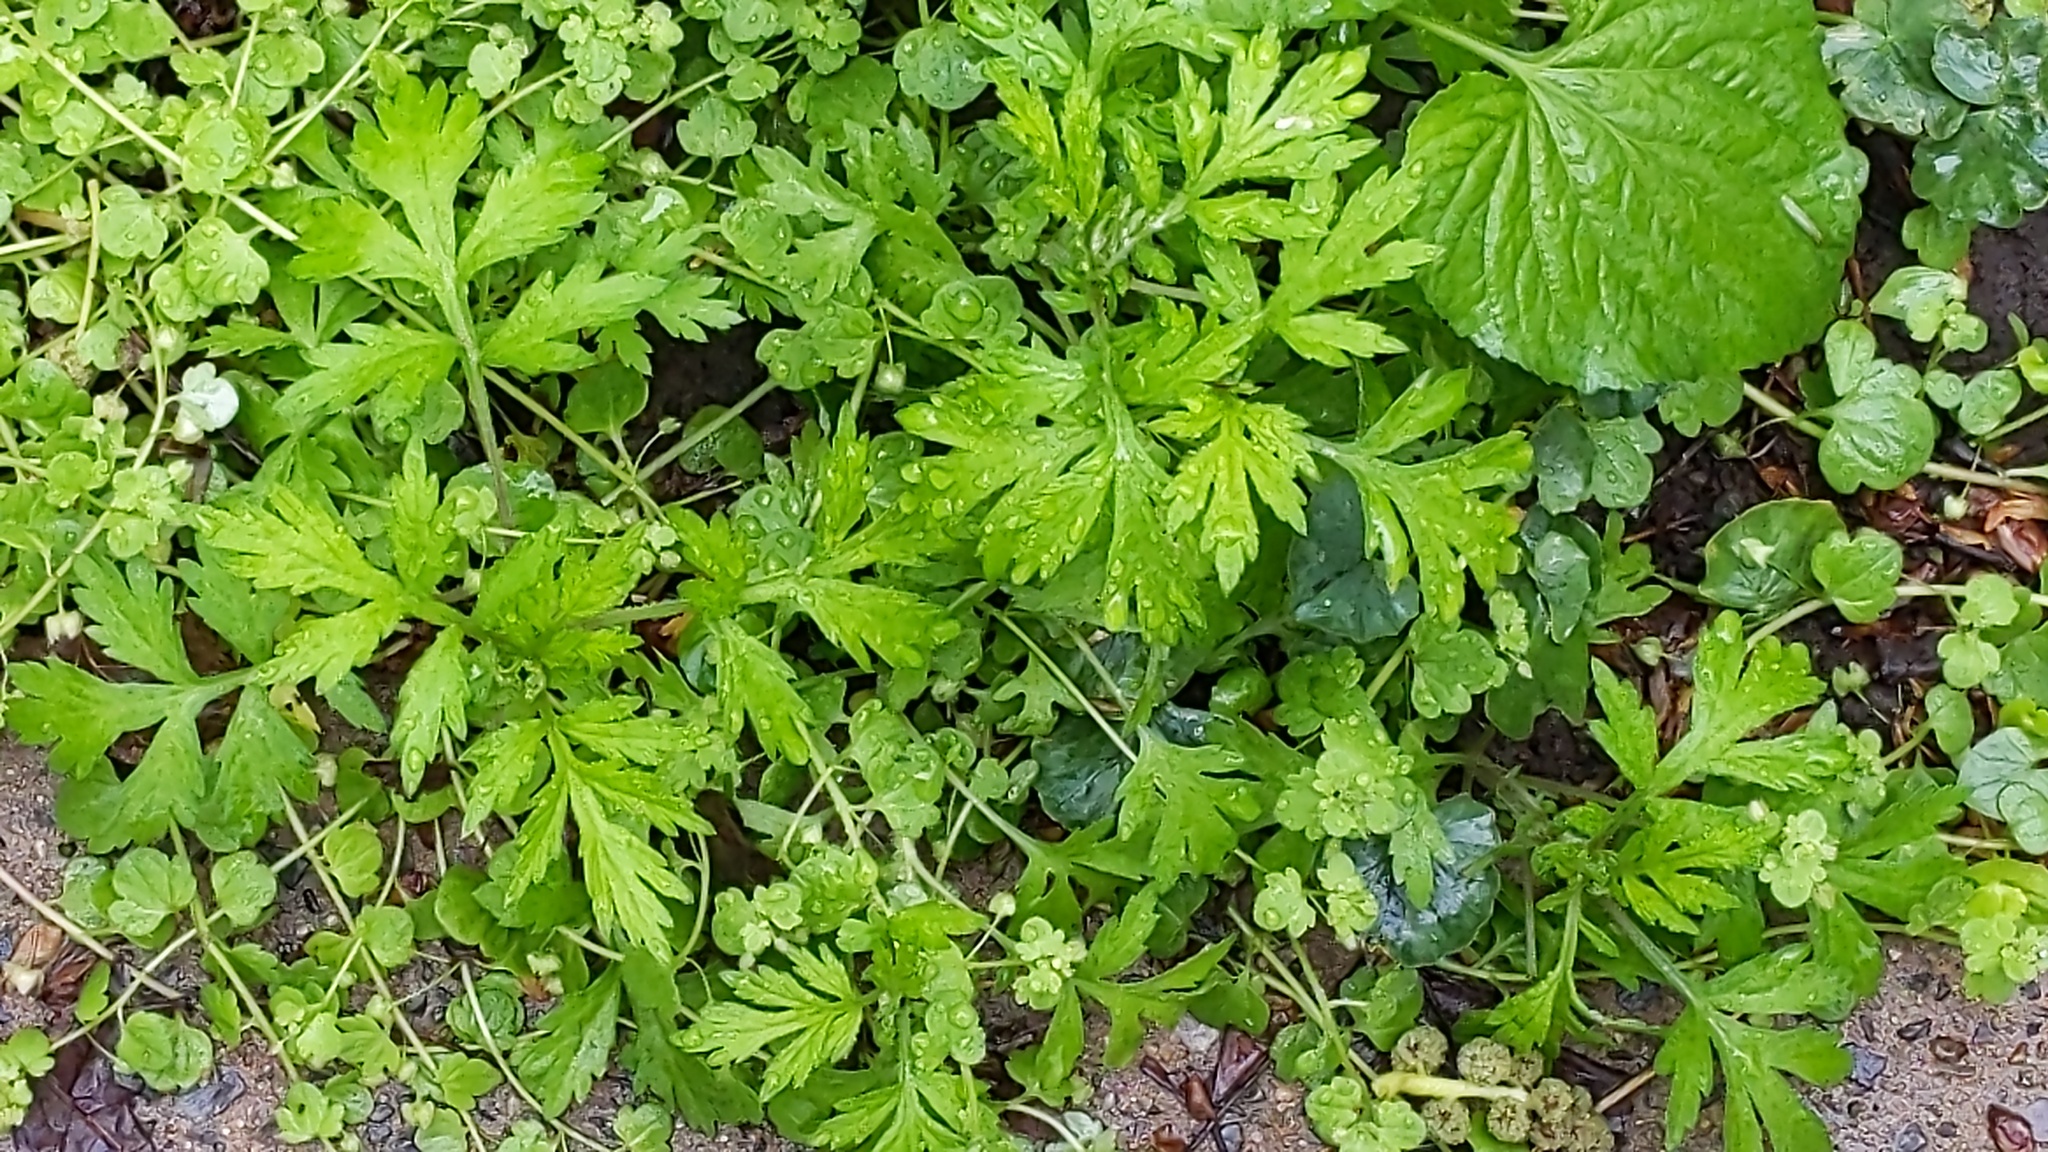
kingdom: Plantae
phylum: Tracheophyta
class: Magnoliopsida
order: Asterales
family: Asteraceae
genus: Artemisia
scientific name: Artemisia vulgaris
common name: Mugwort
